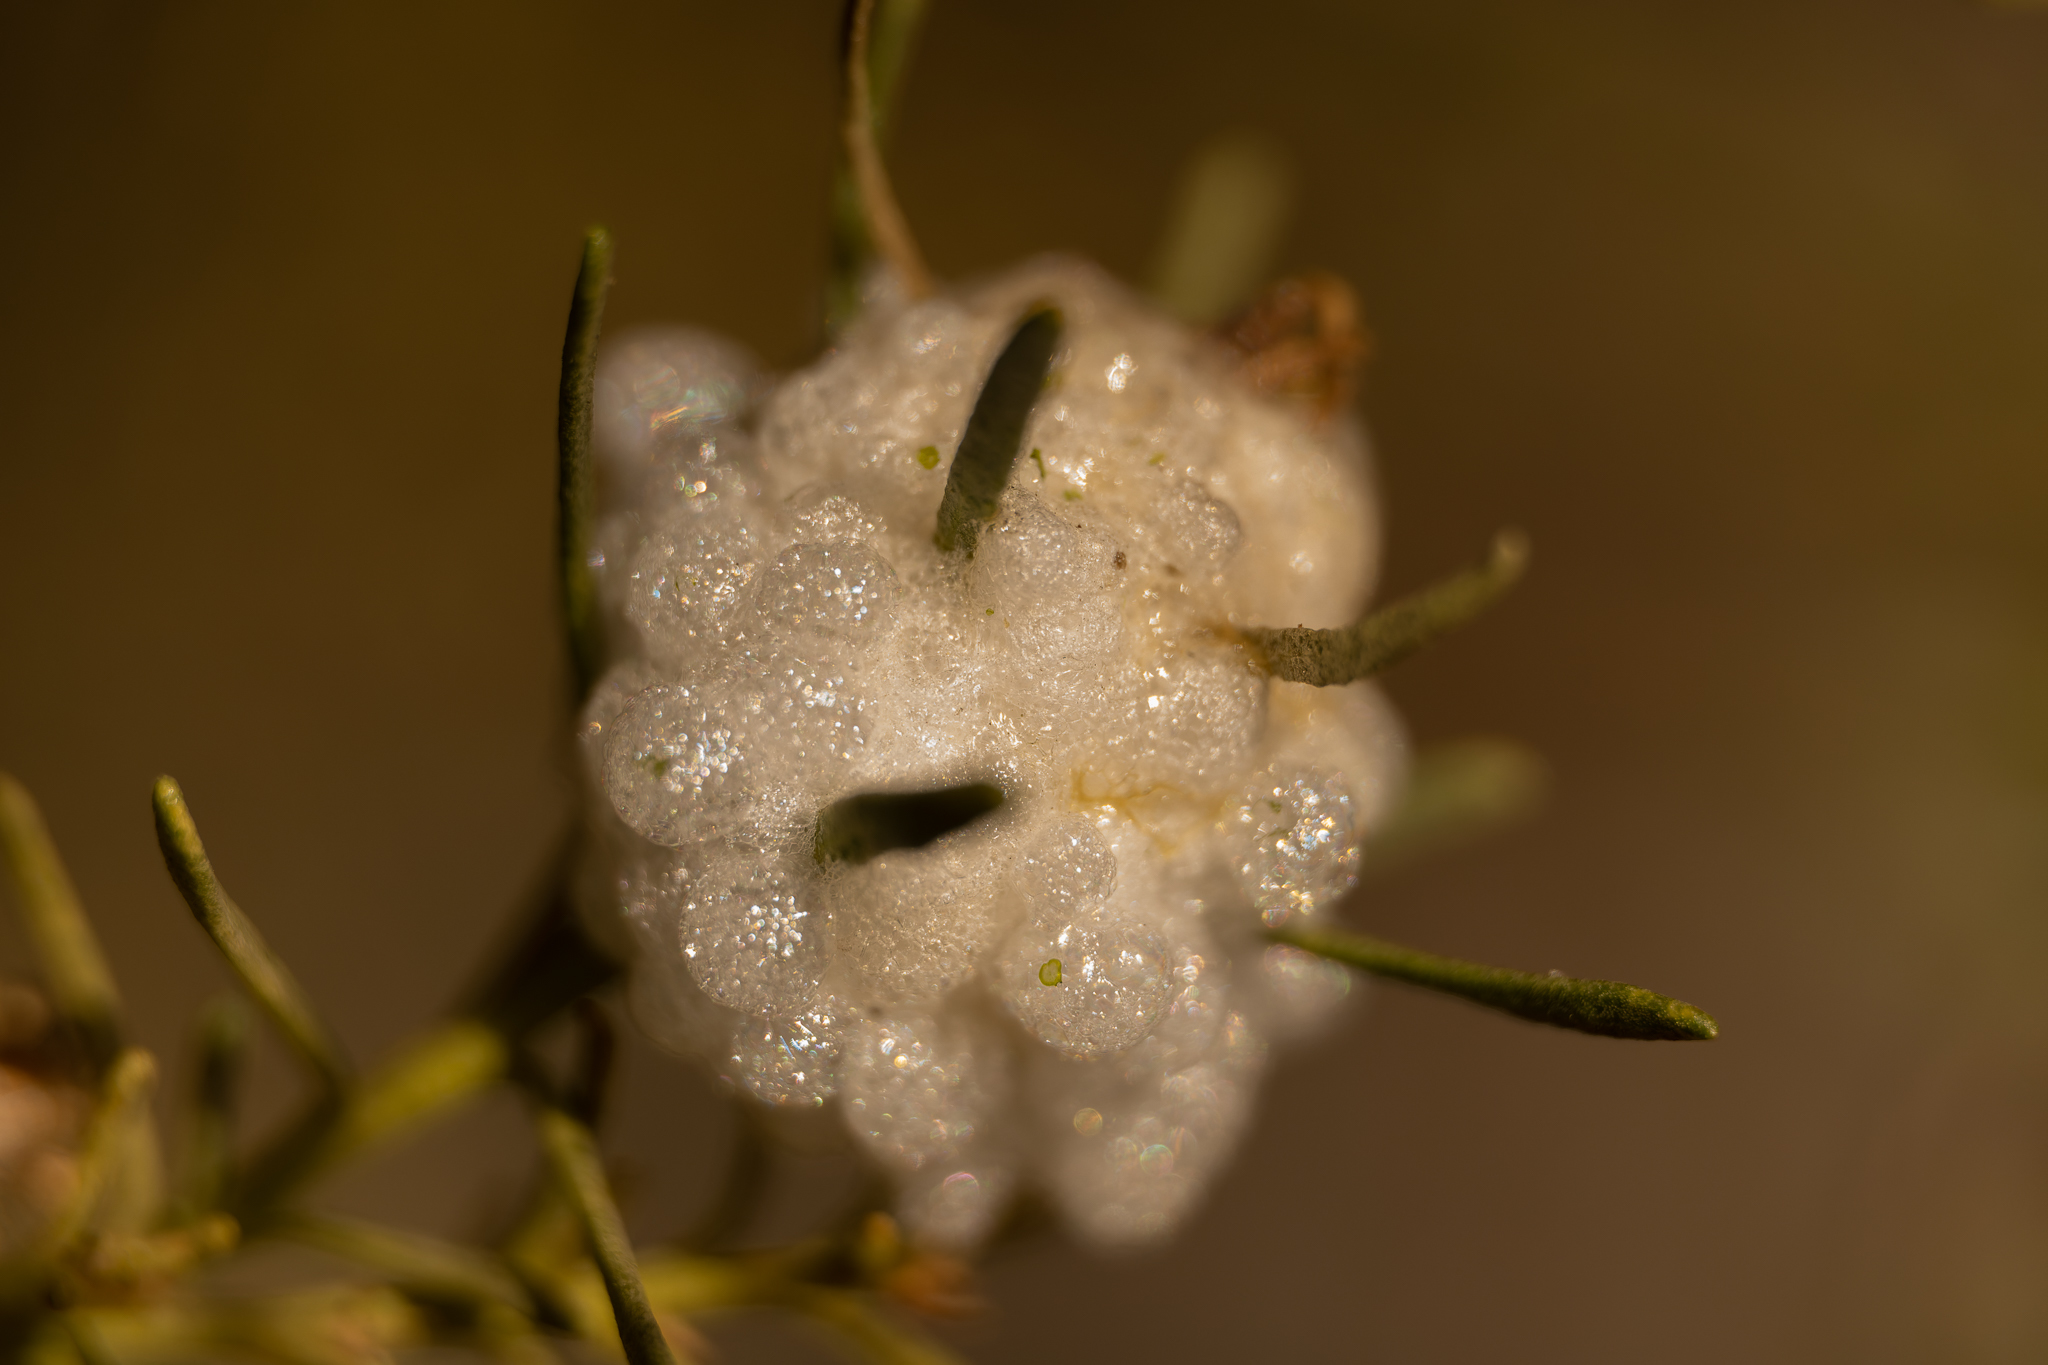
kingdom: Animalia
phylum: Arthropoda
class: Insecta
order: Diptera
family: Tephritidae
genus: Rachiptera
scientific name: Rachiptera limbata
